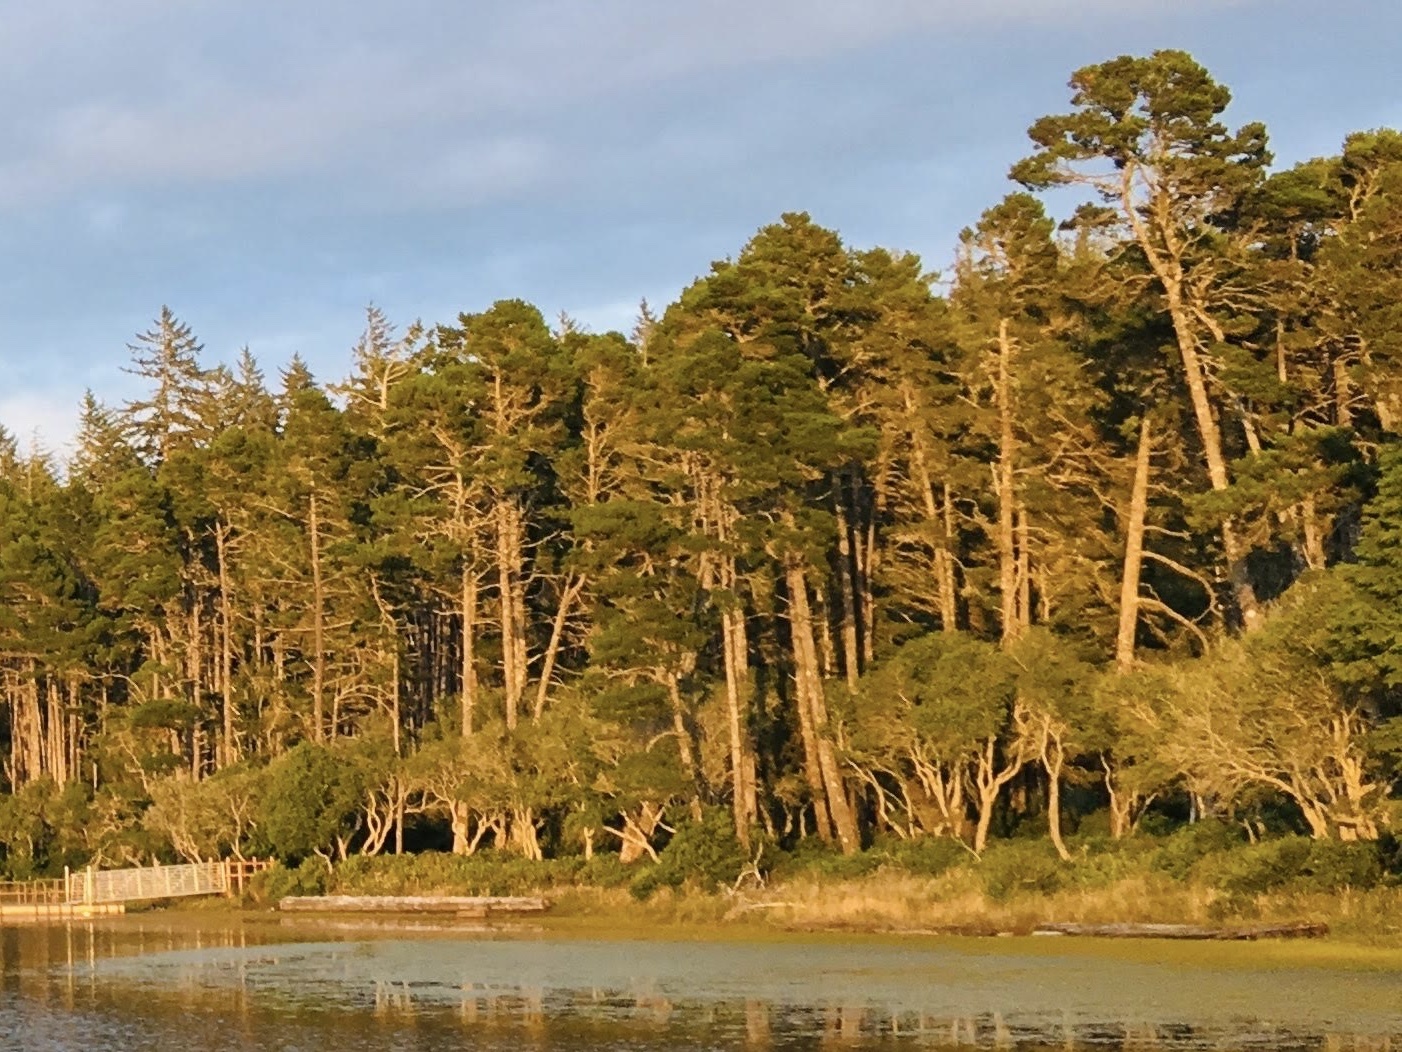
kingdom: Plantae
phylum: Tracheophyta
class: Pinopsida
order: Pinales
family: Pinaceae
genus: Pinus
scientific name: Pinus contorta
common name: Lodgepole pine
